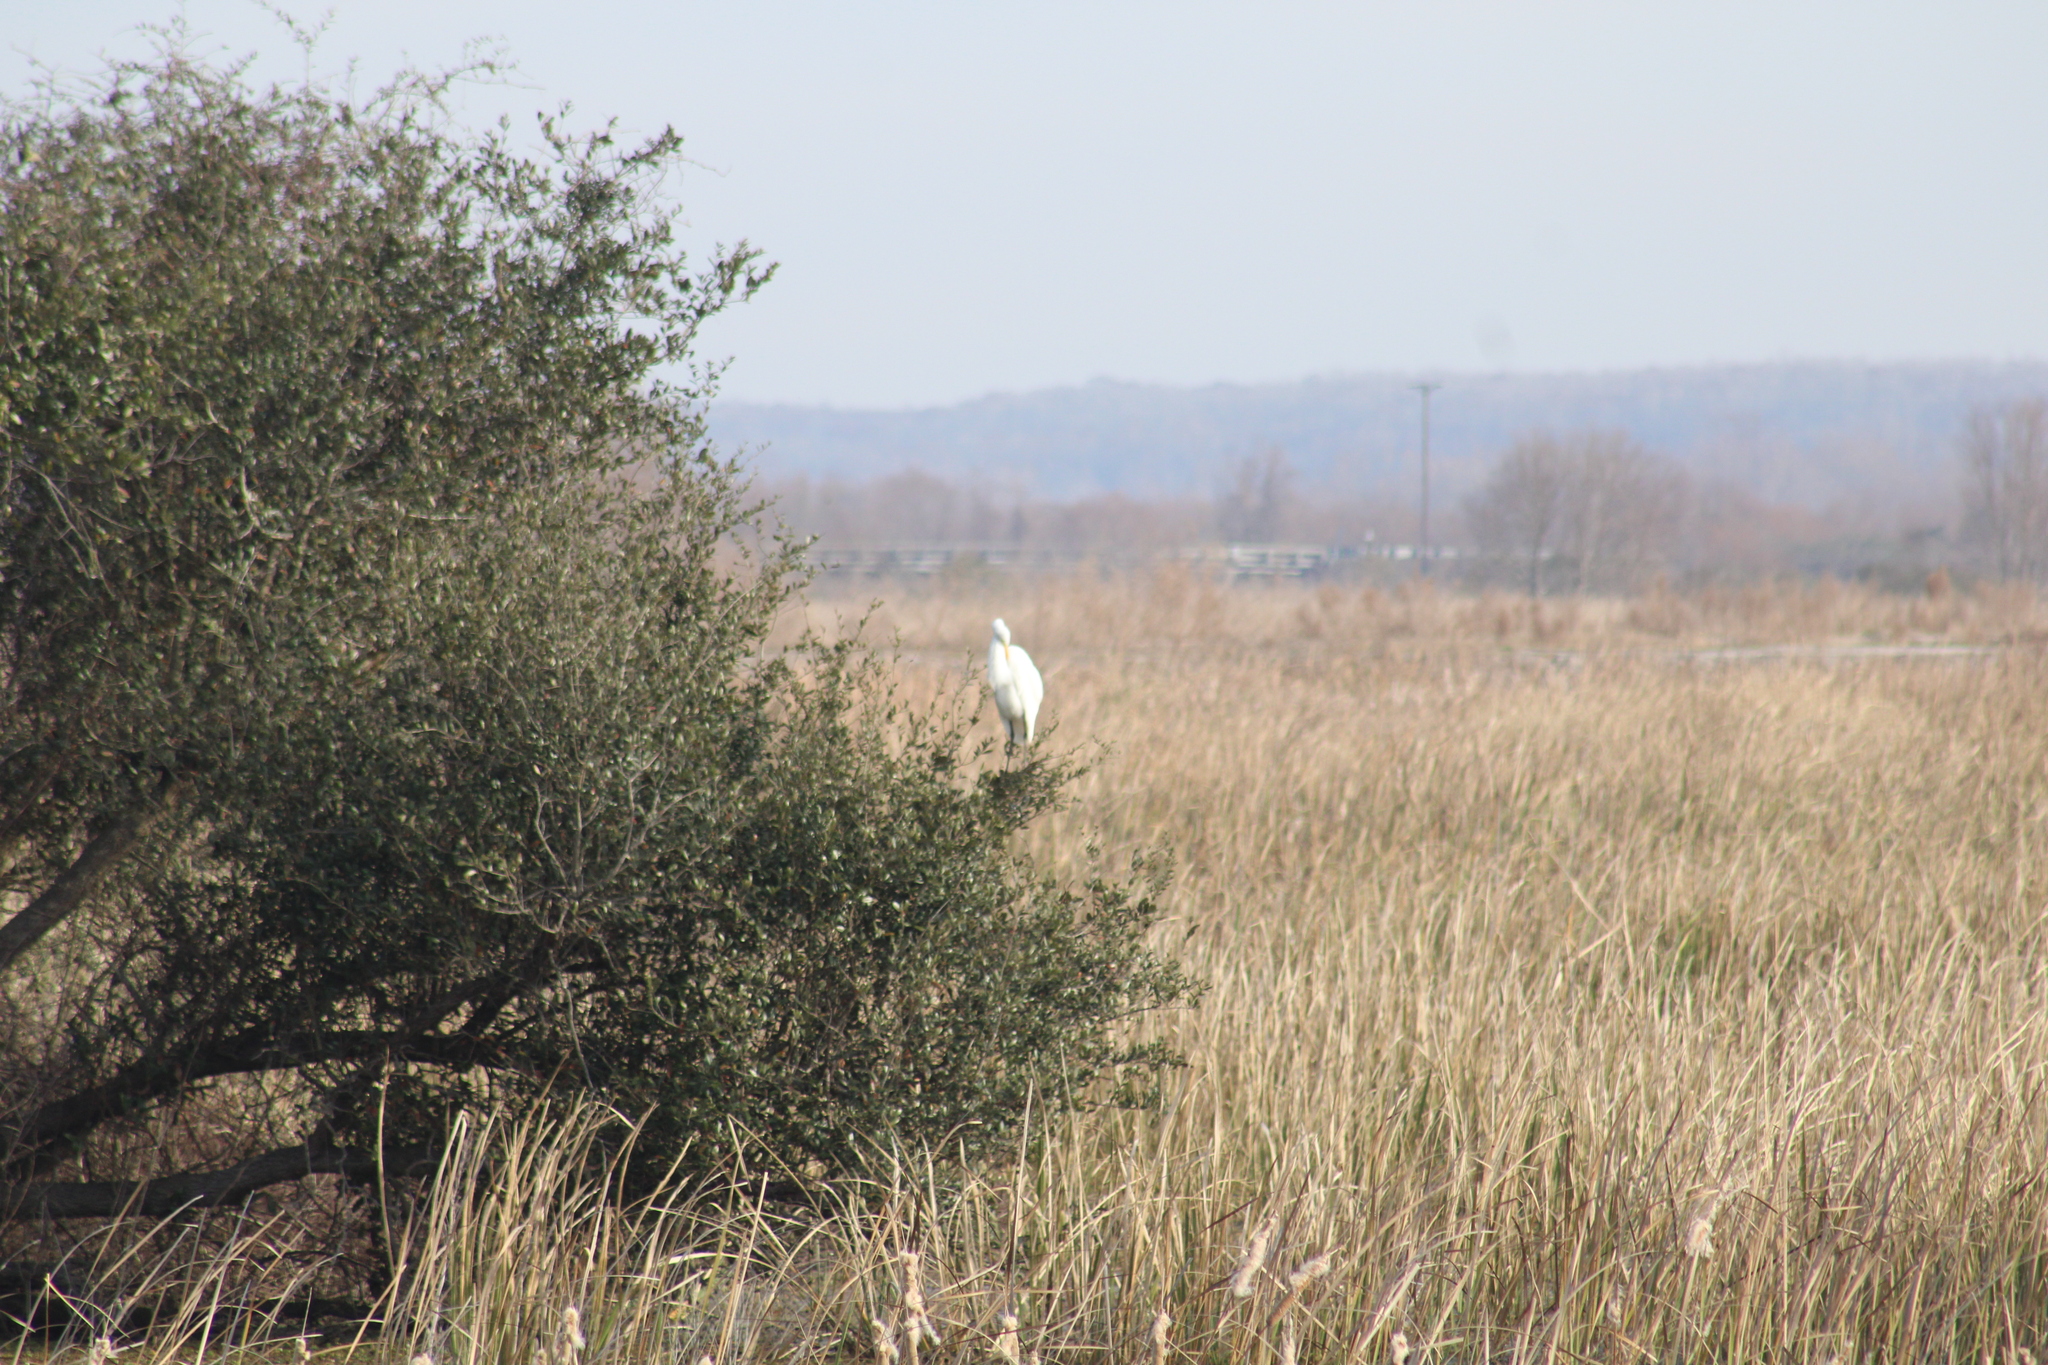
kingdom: Animalia
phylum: Chordata
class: Aves
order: Pelecaniformes
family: Ardeidae
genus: Ardea
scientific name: Ardea alba
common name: Great egret
